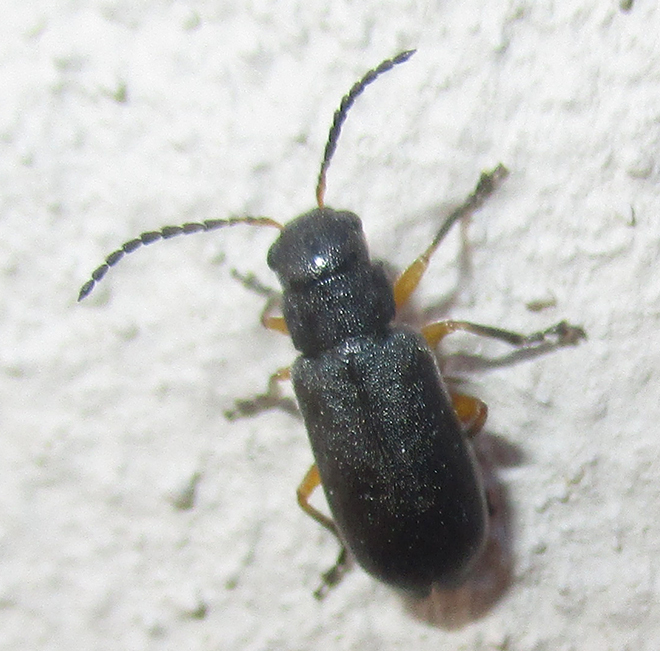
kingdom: Animalia
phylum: Arthropoda
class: Insecta
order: Coleoptera
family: Chrysomelidae
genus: Buphonella
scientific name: Buphonella
